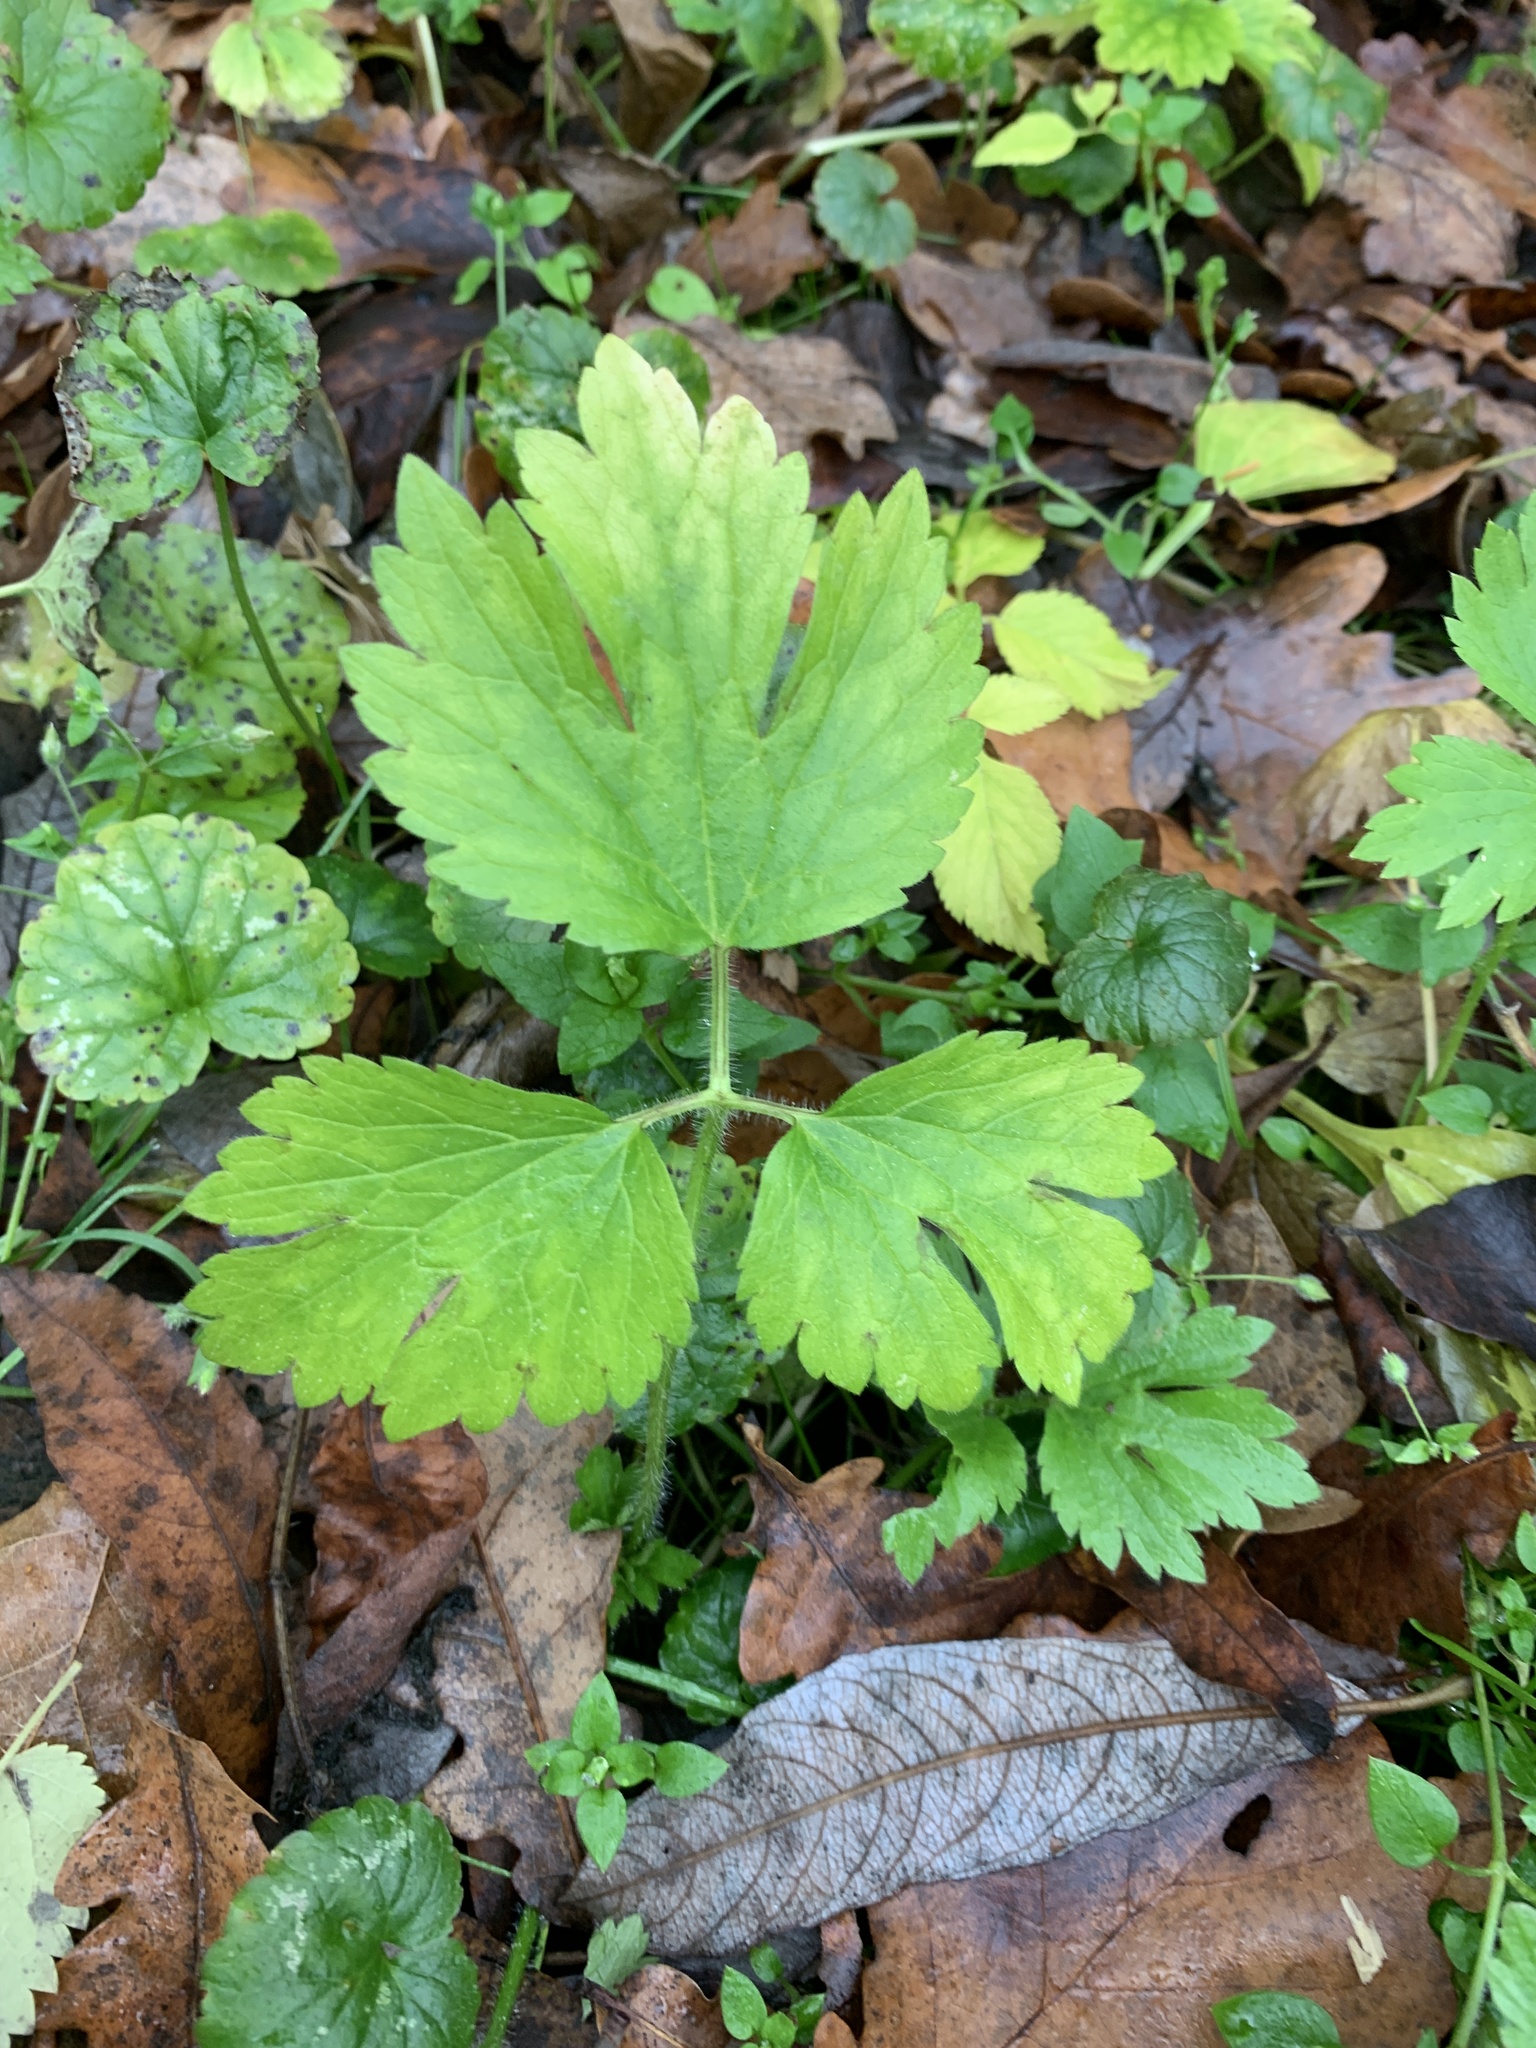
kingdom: Plantae
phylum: Tracheophyta
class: Magnoliopsida
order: Ranunculales
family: Ranunculaceae
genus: Ranunculus
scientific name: Ranunculus repens
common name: Creeping buttercup
